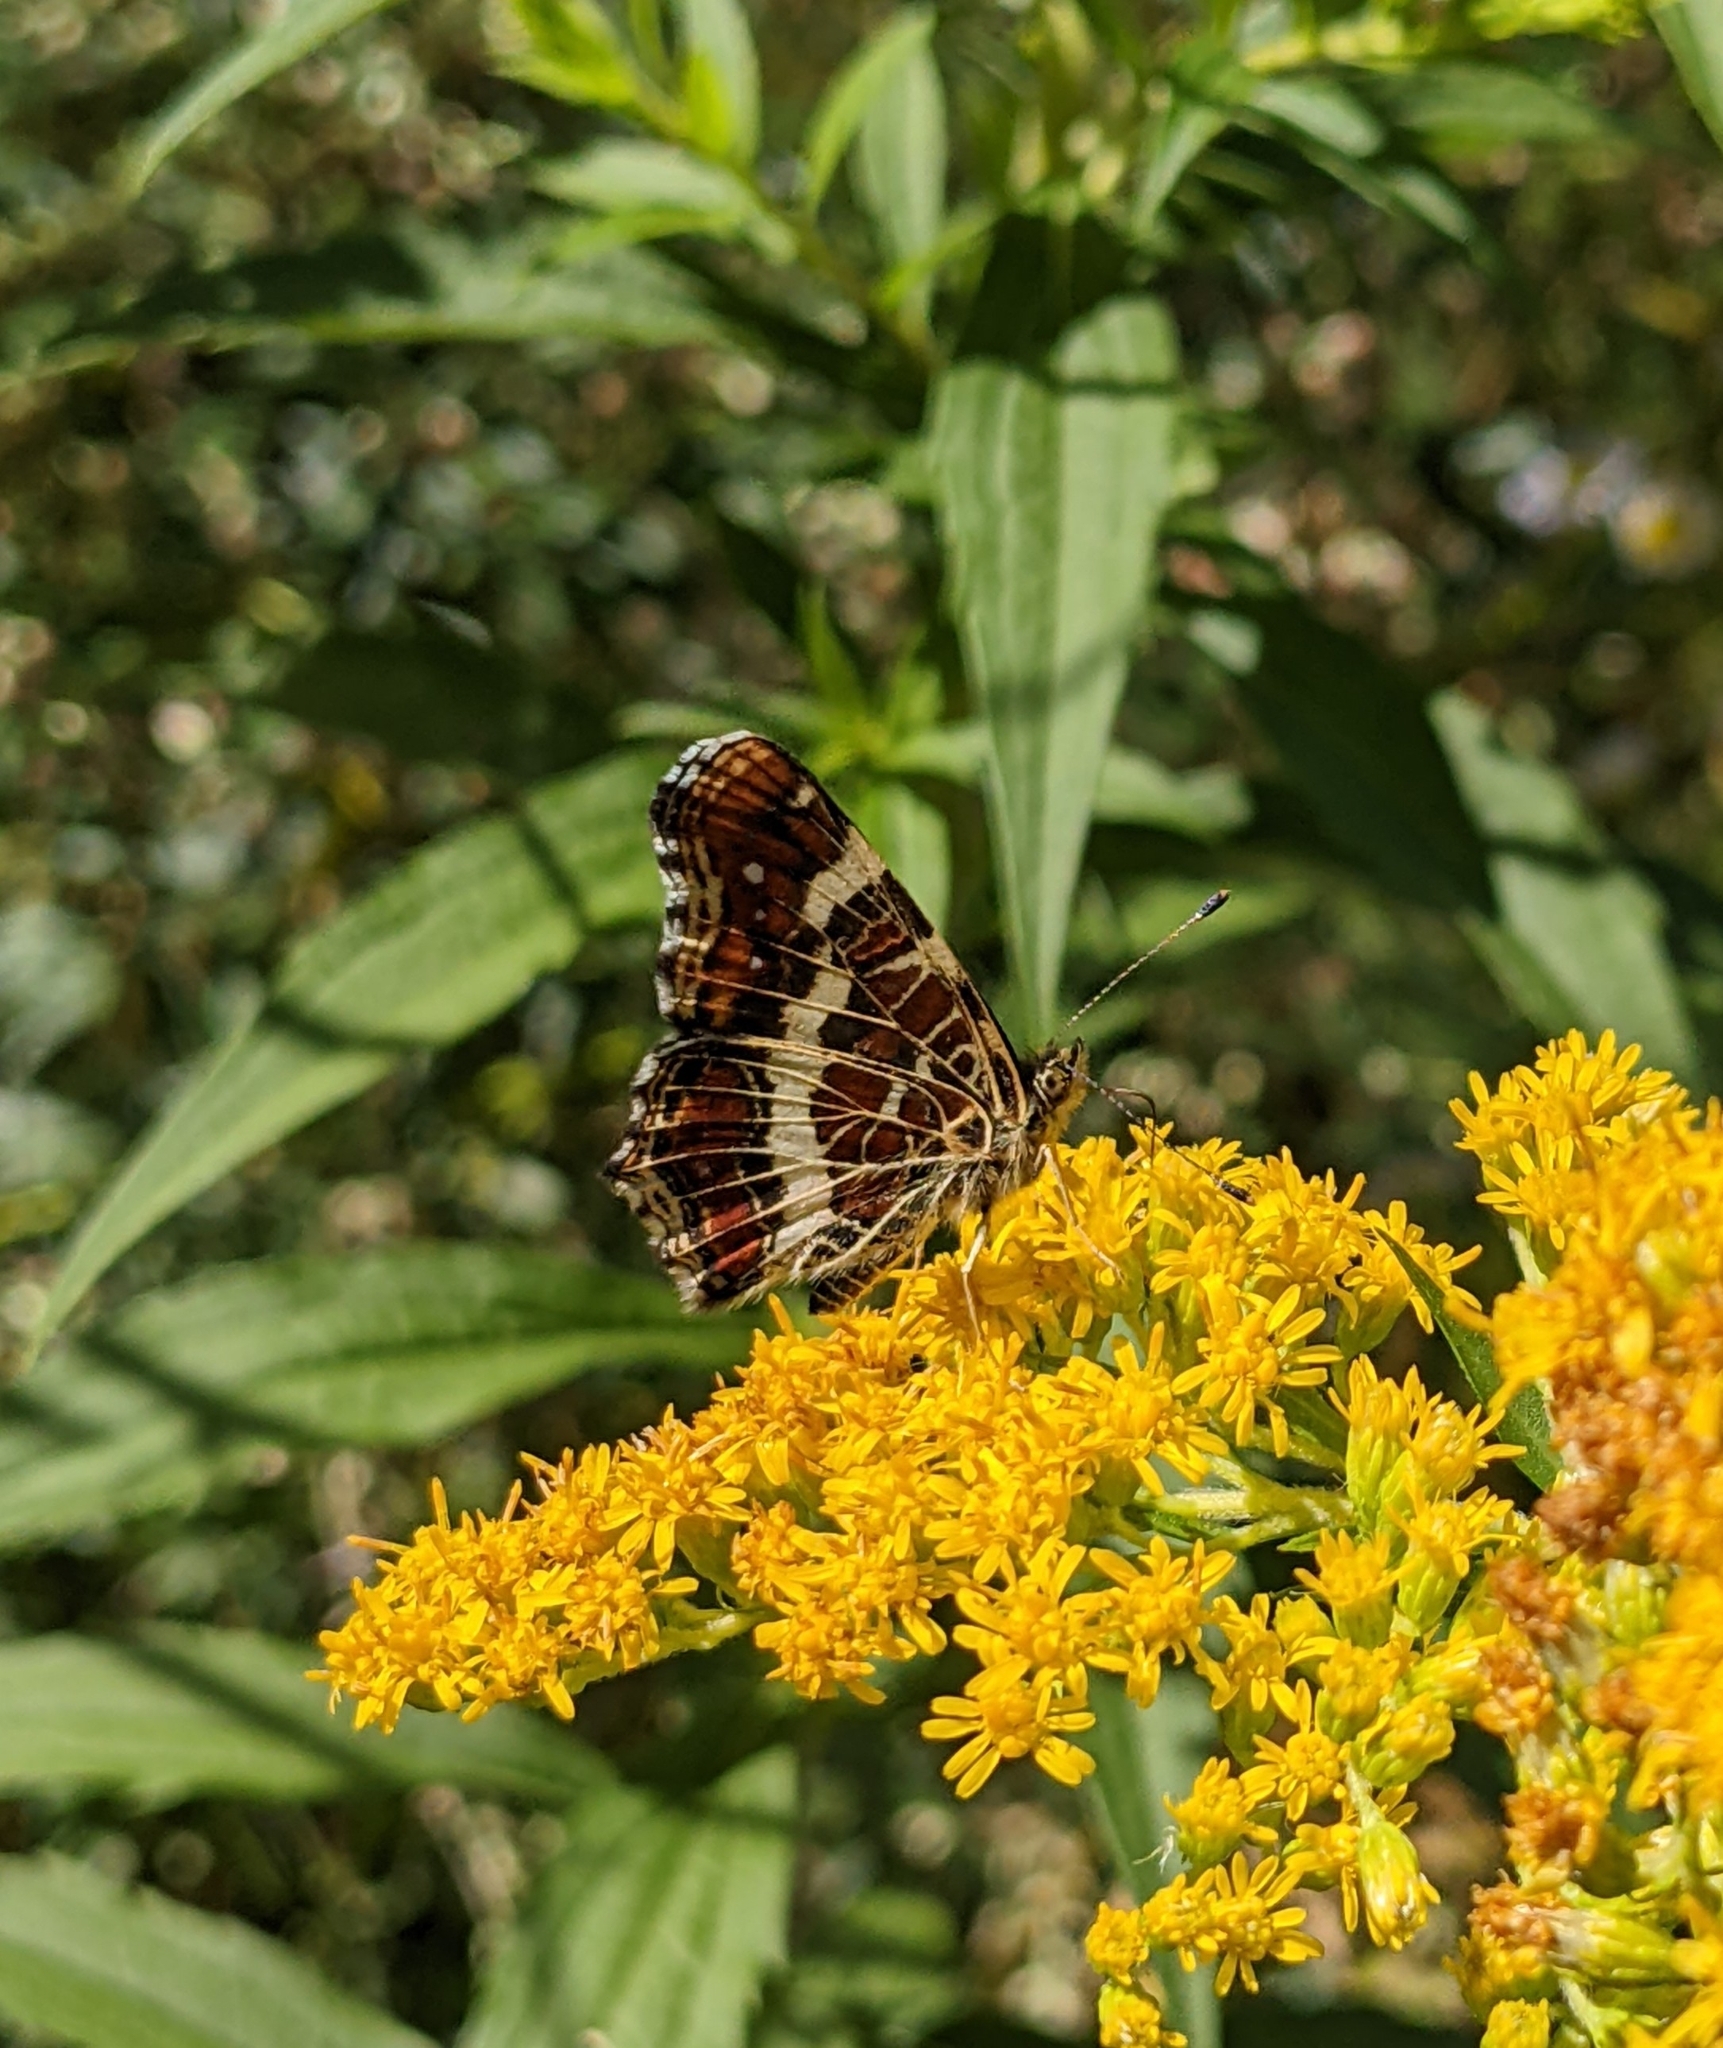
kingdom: Animalia
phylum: Arthropoda
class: Insecta
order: Lepidoptera
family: Nymphalidae
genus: Araschnia
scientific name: Araschnia levana
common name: Map butterfly
